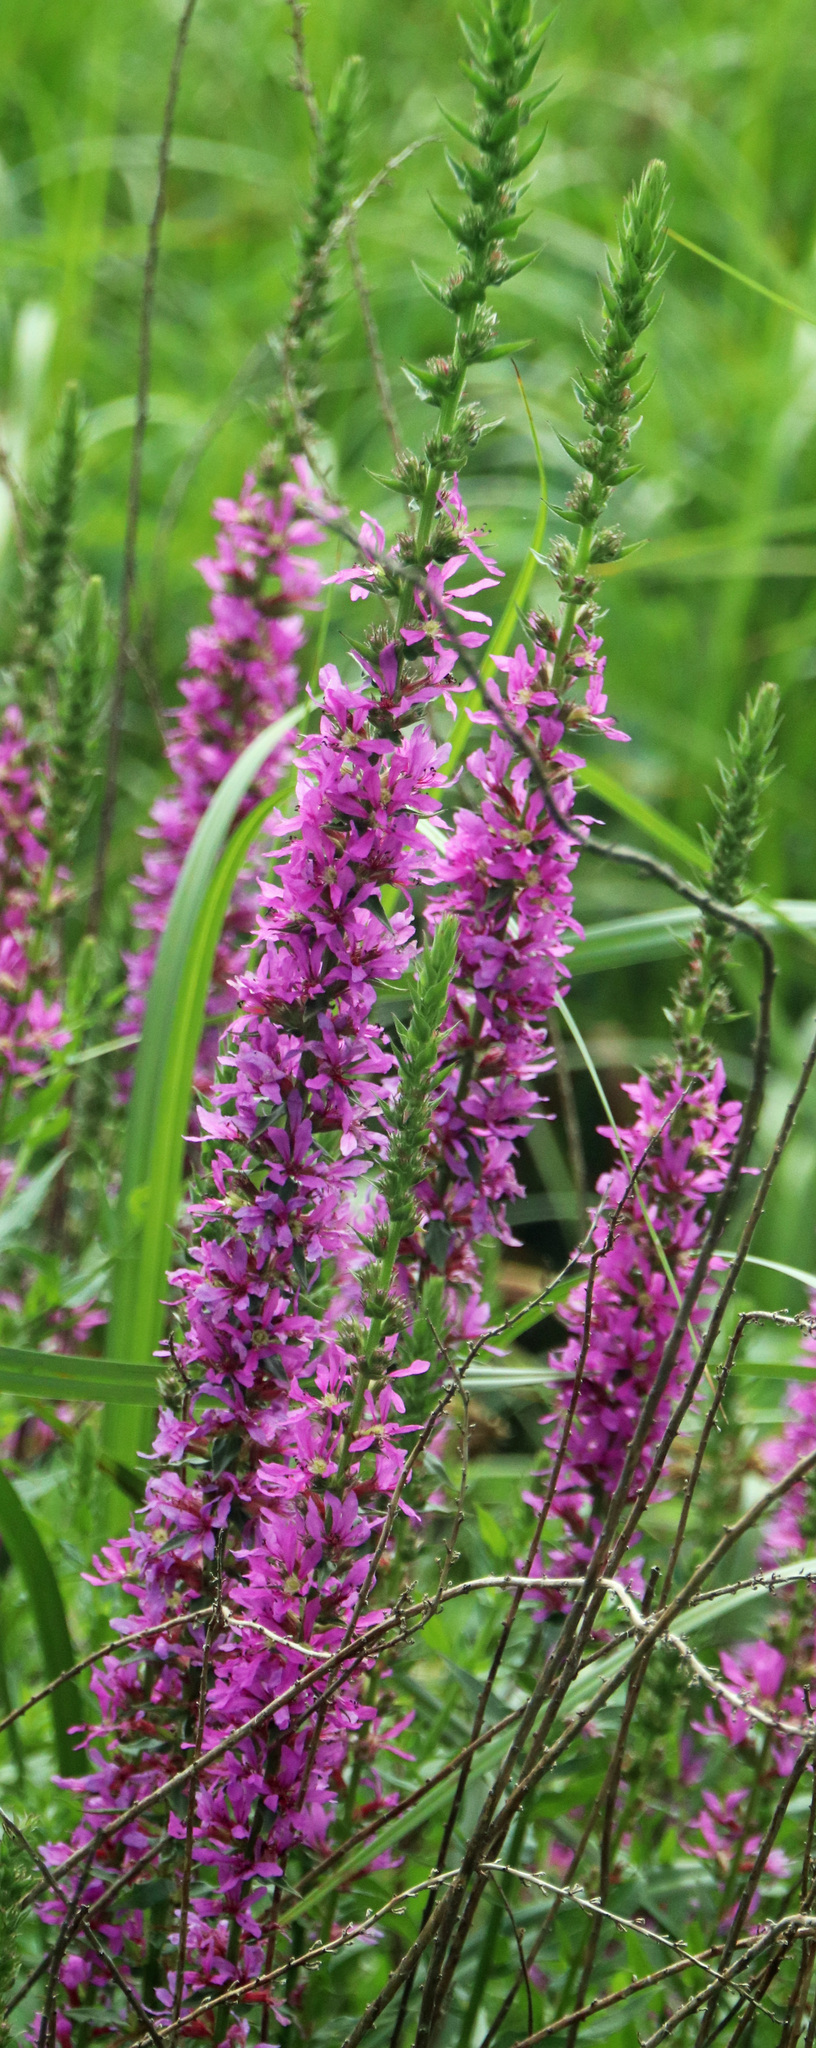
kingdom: Plantae
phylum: Tracheophyta
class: Magnoliopsida
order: Myrtales
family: Lythraceae
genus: Lythrum
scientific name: Lythrum salicaria
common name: Purple loosestrife
